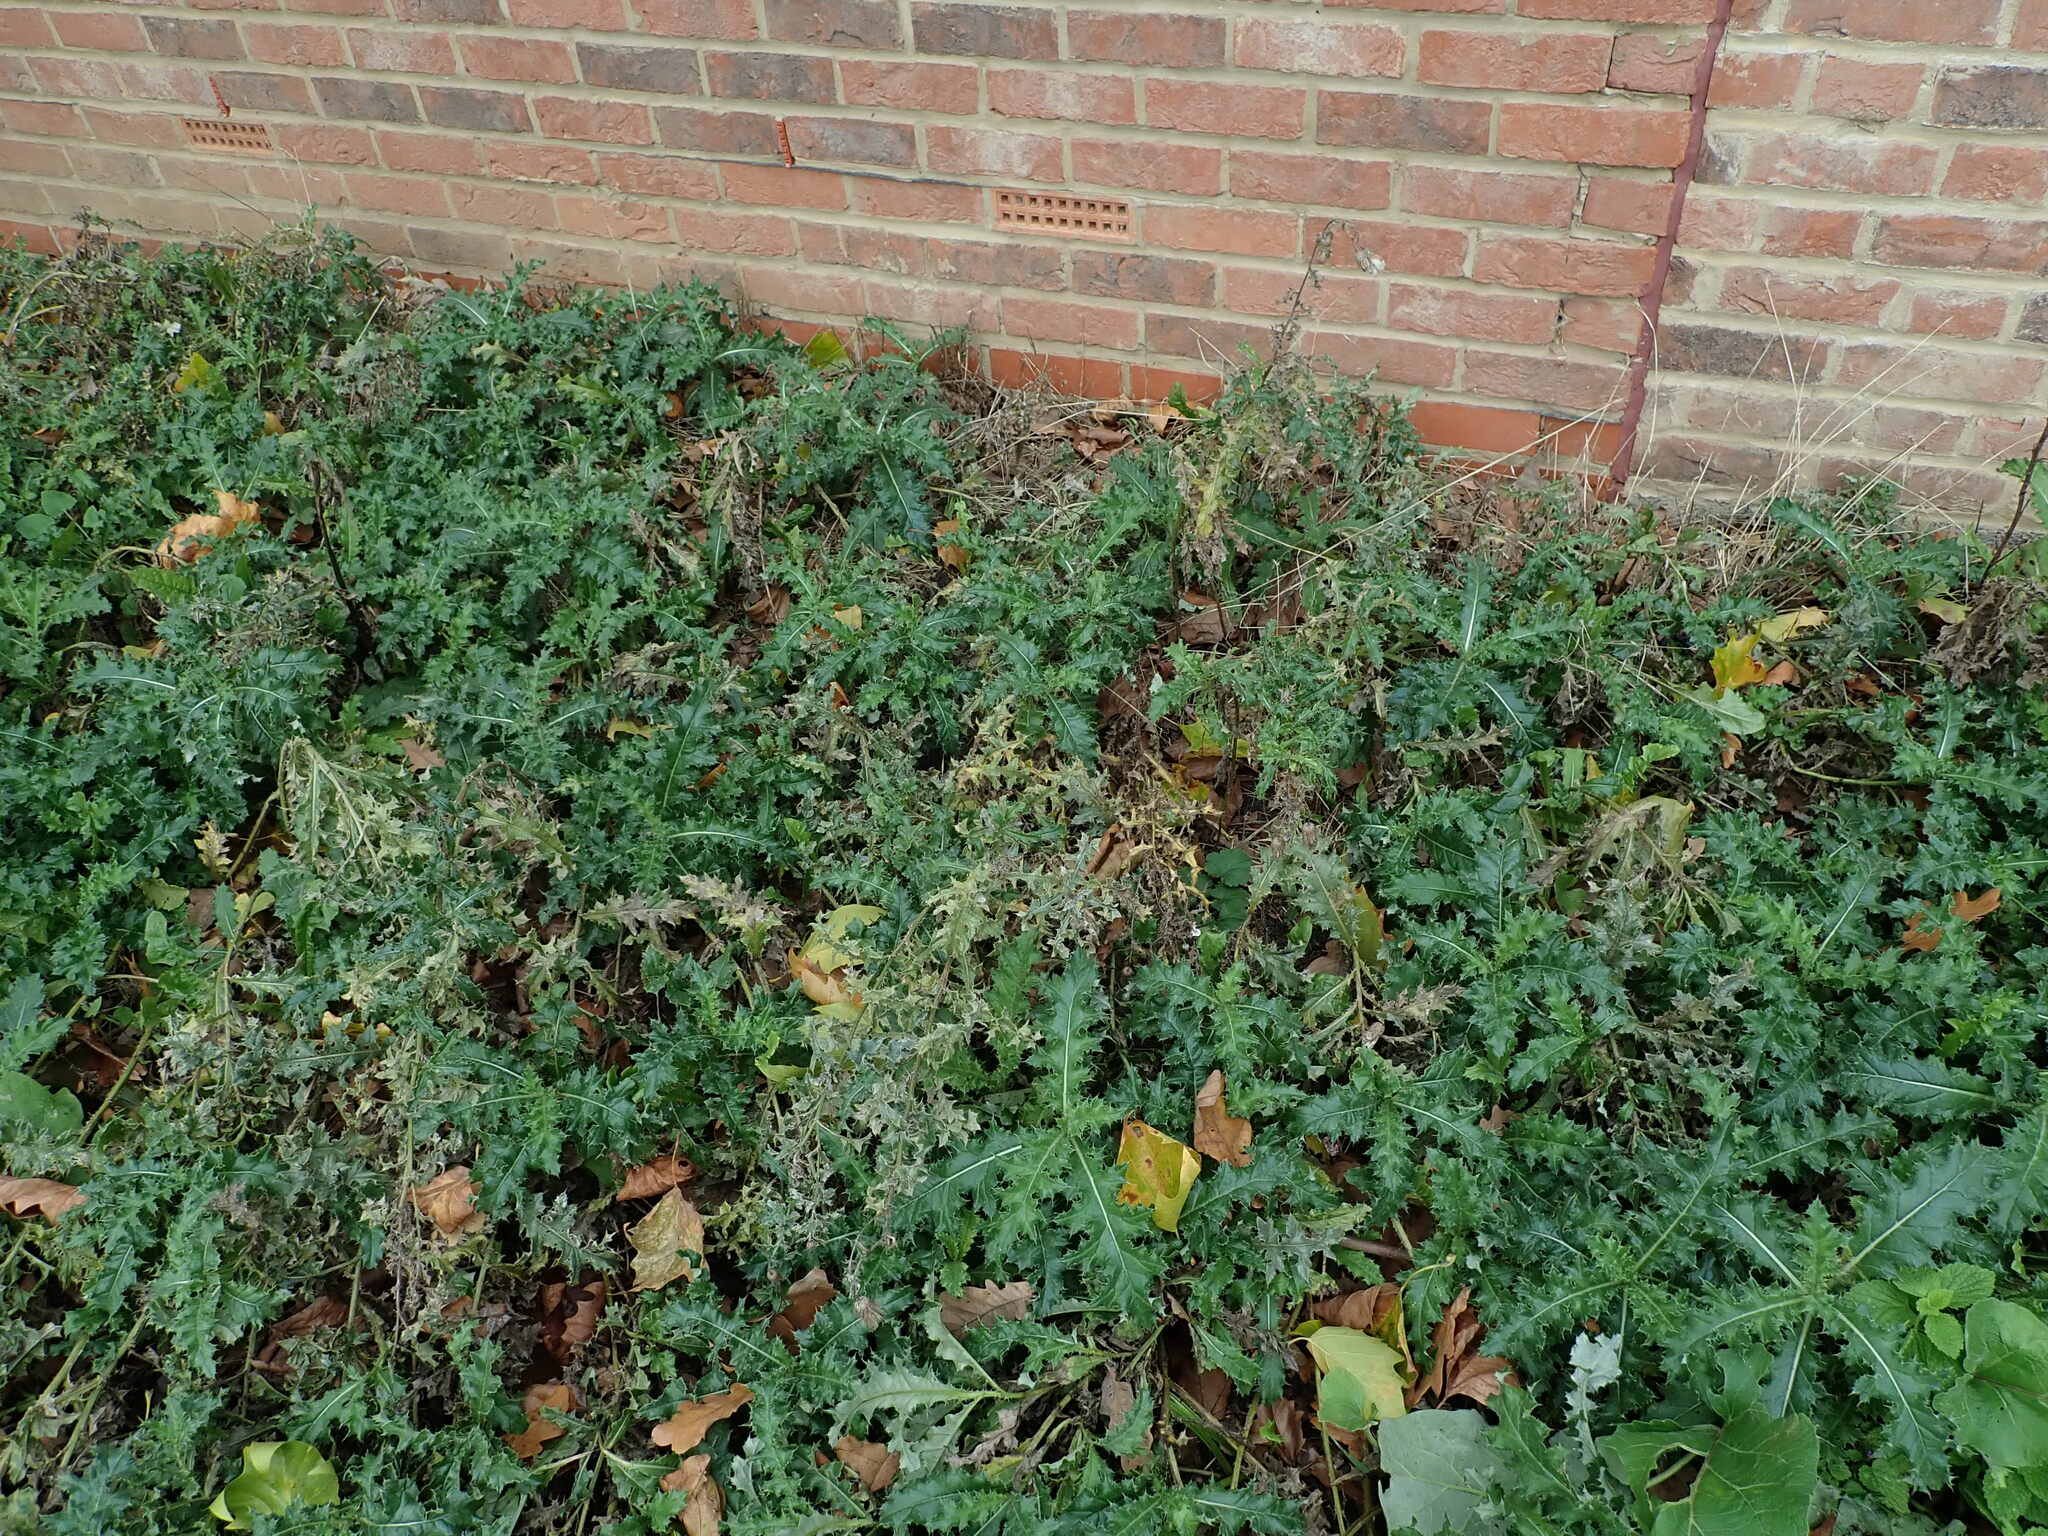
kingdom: Plantae
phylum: Tracheophyta
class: Magnoliopsida
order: Asterales
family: Asteraceae
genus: Cirsium
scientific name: Cirsium arvense
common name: Creeping thistle
